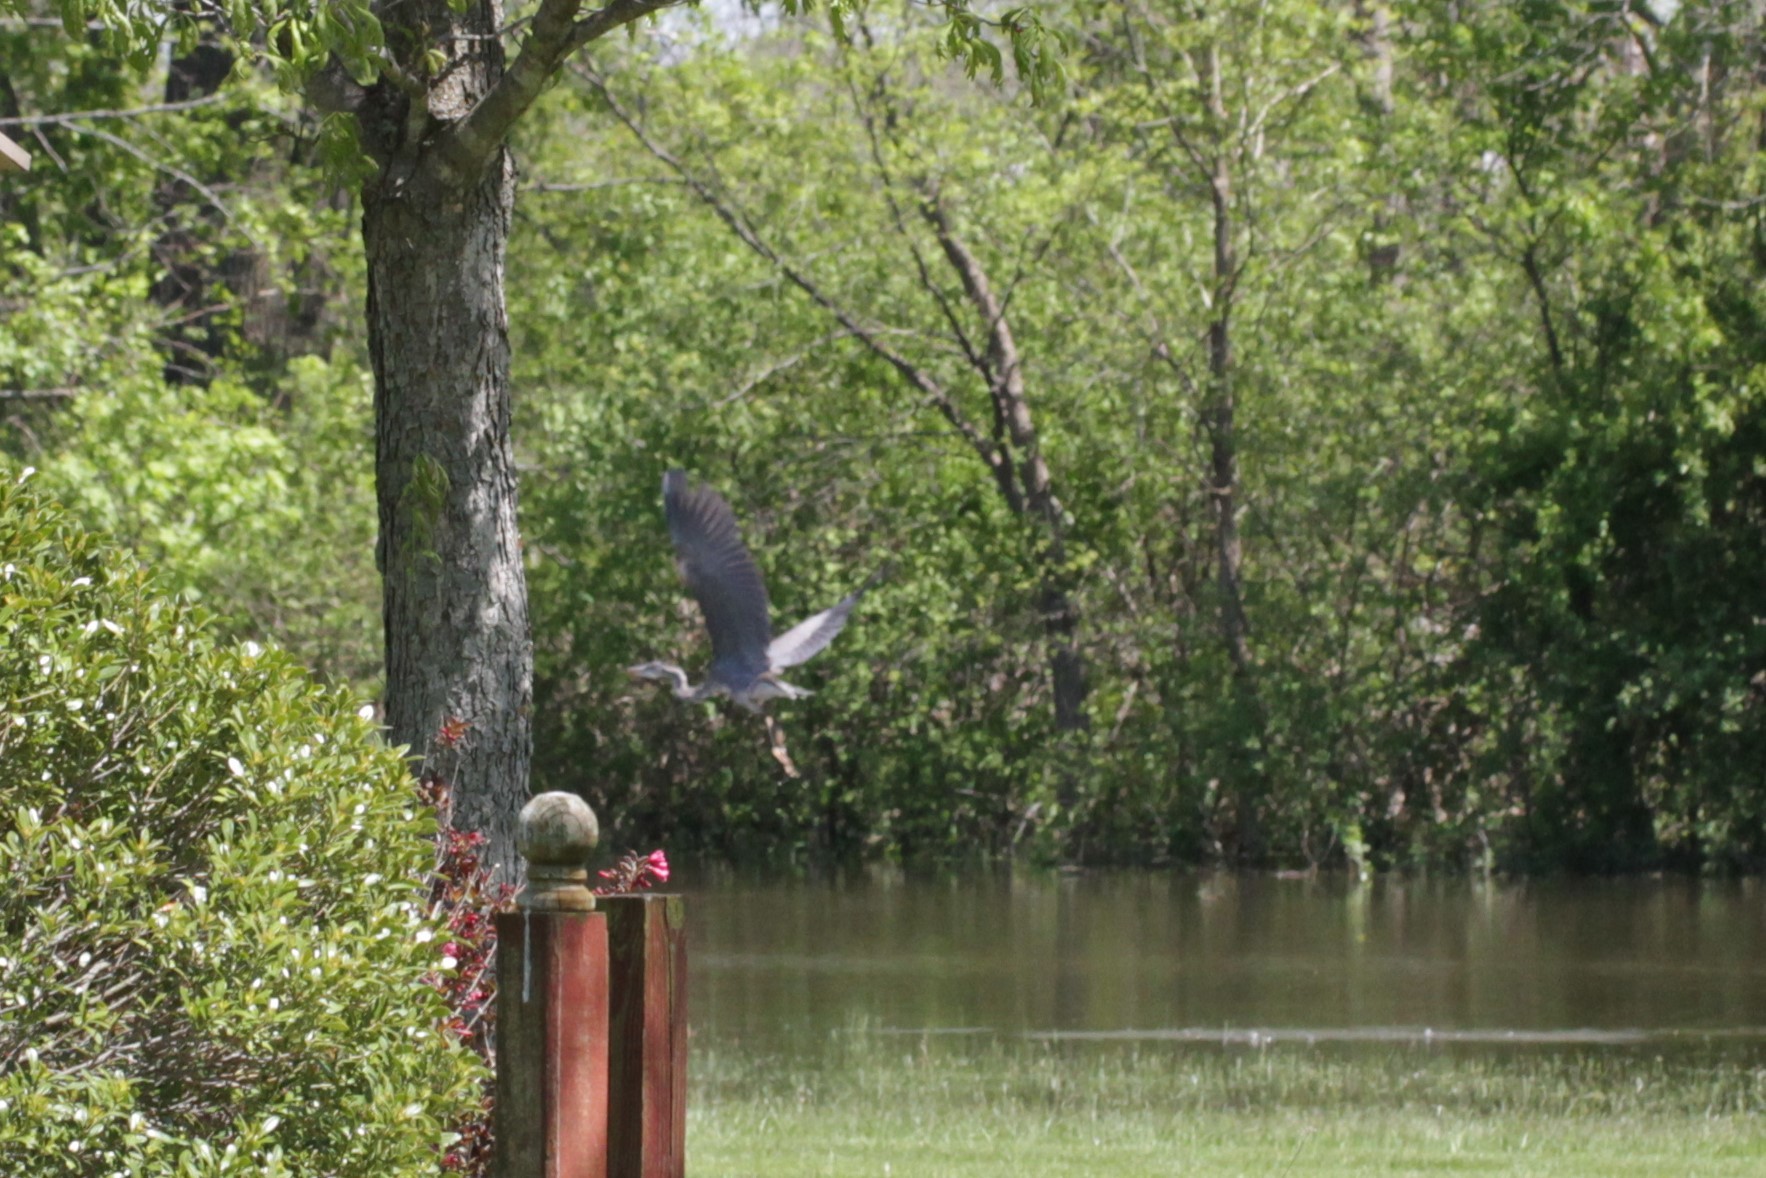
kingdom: Animalia
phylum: Chordata
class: Aves
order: Pelecaniformes
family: Ardeidae
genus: Ardea
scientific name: Ardea herodias
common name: Great blue heron
